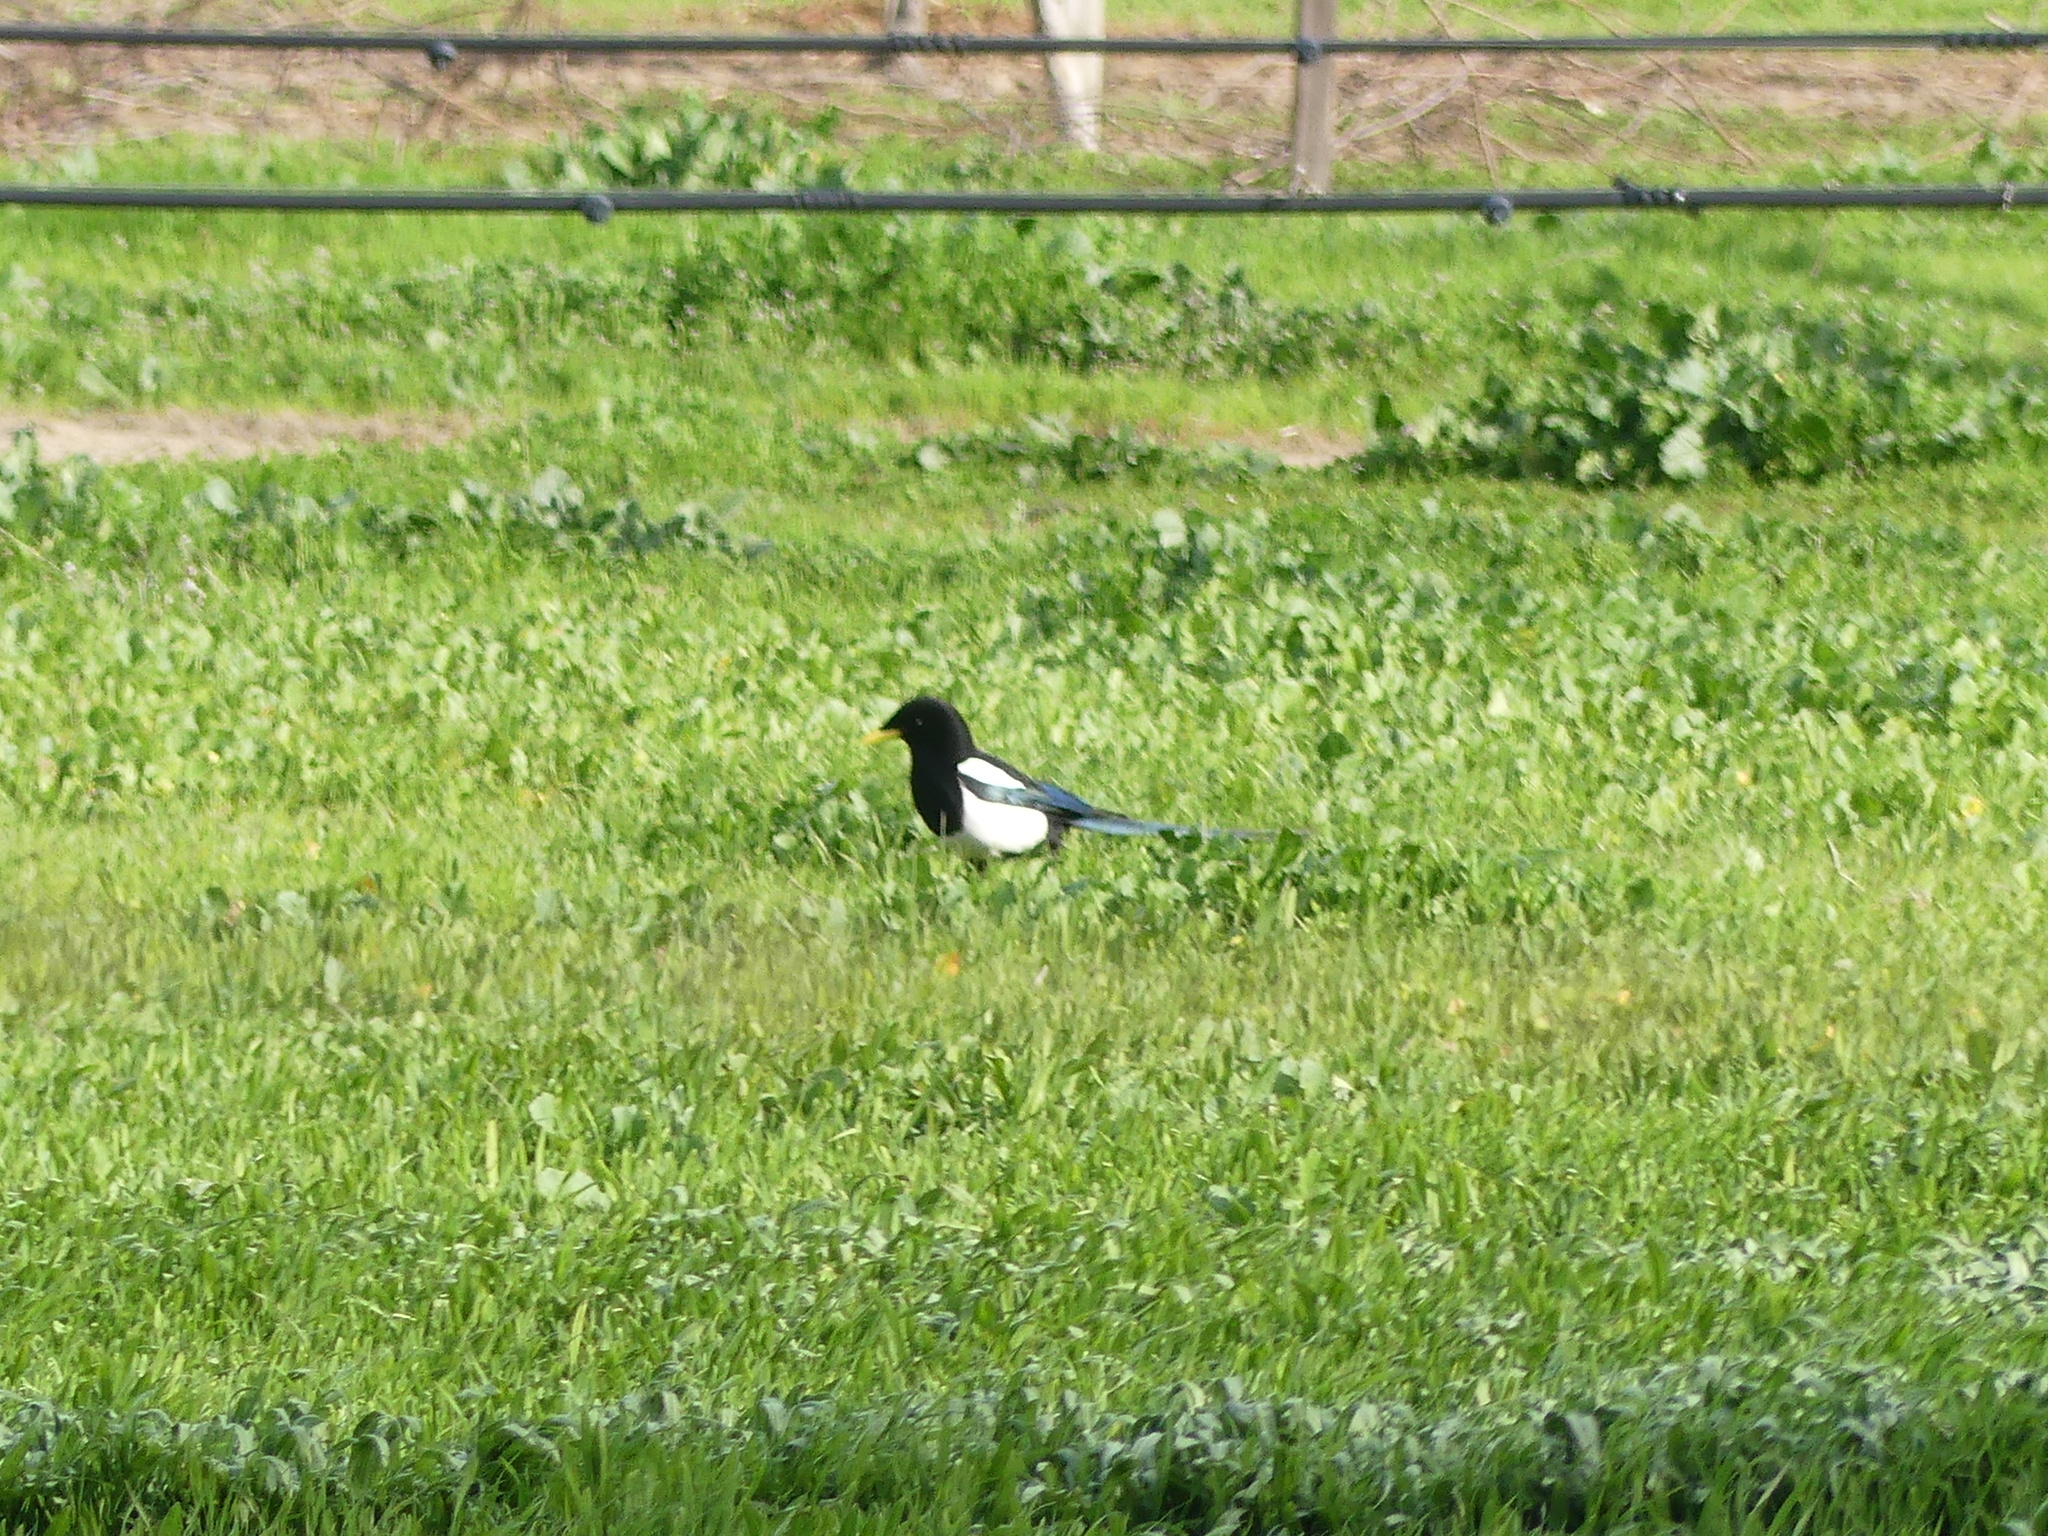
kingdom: Animalia
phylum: Chordata
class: Aves
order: Passeriformes
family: Corvidae
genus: Pica
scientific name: Pica nuttalli
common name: Yellow-billed magpie
